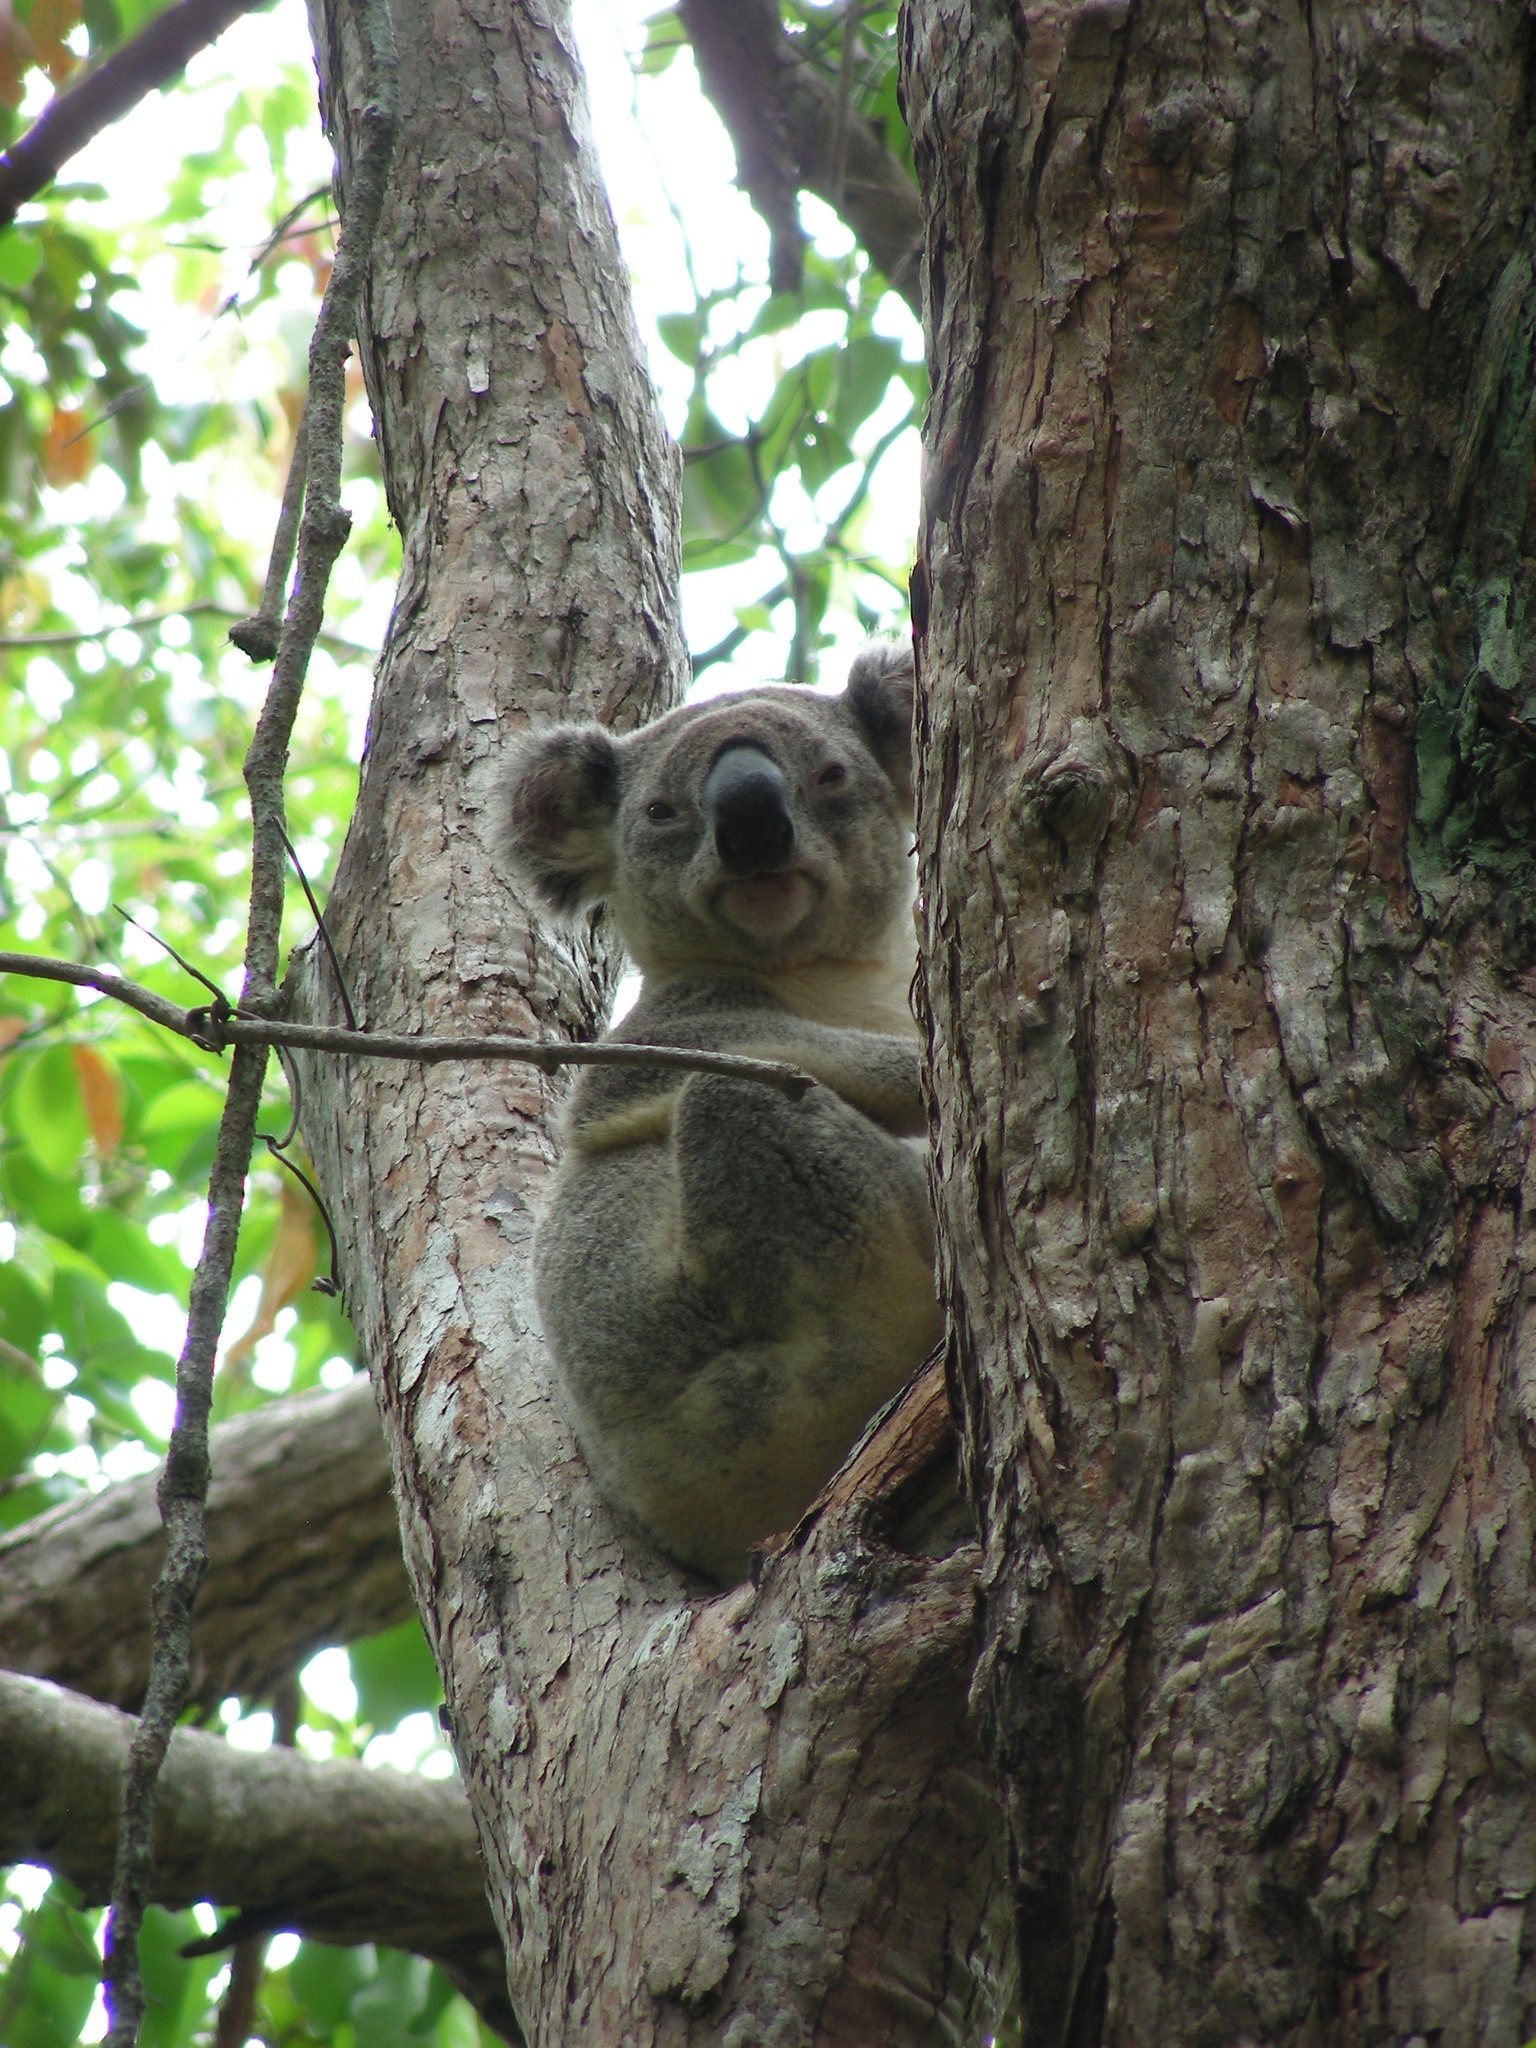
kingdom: Animalia
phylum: Chordata
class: Mammalia
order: Diprotodontia
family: Phascolarctidae
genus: Phascolarctos
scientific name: Phascolarctos cinereus
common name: Koala
